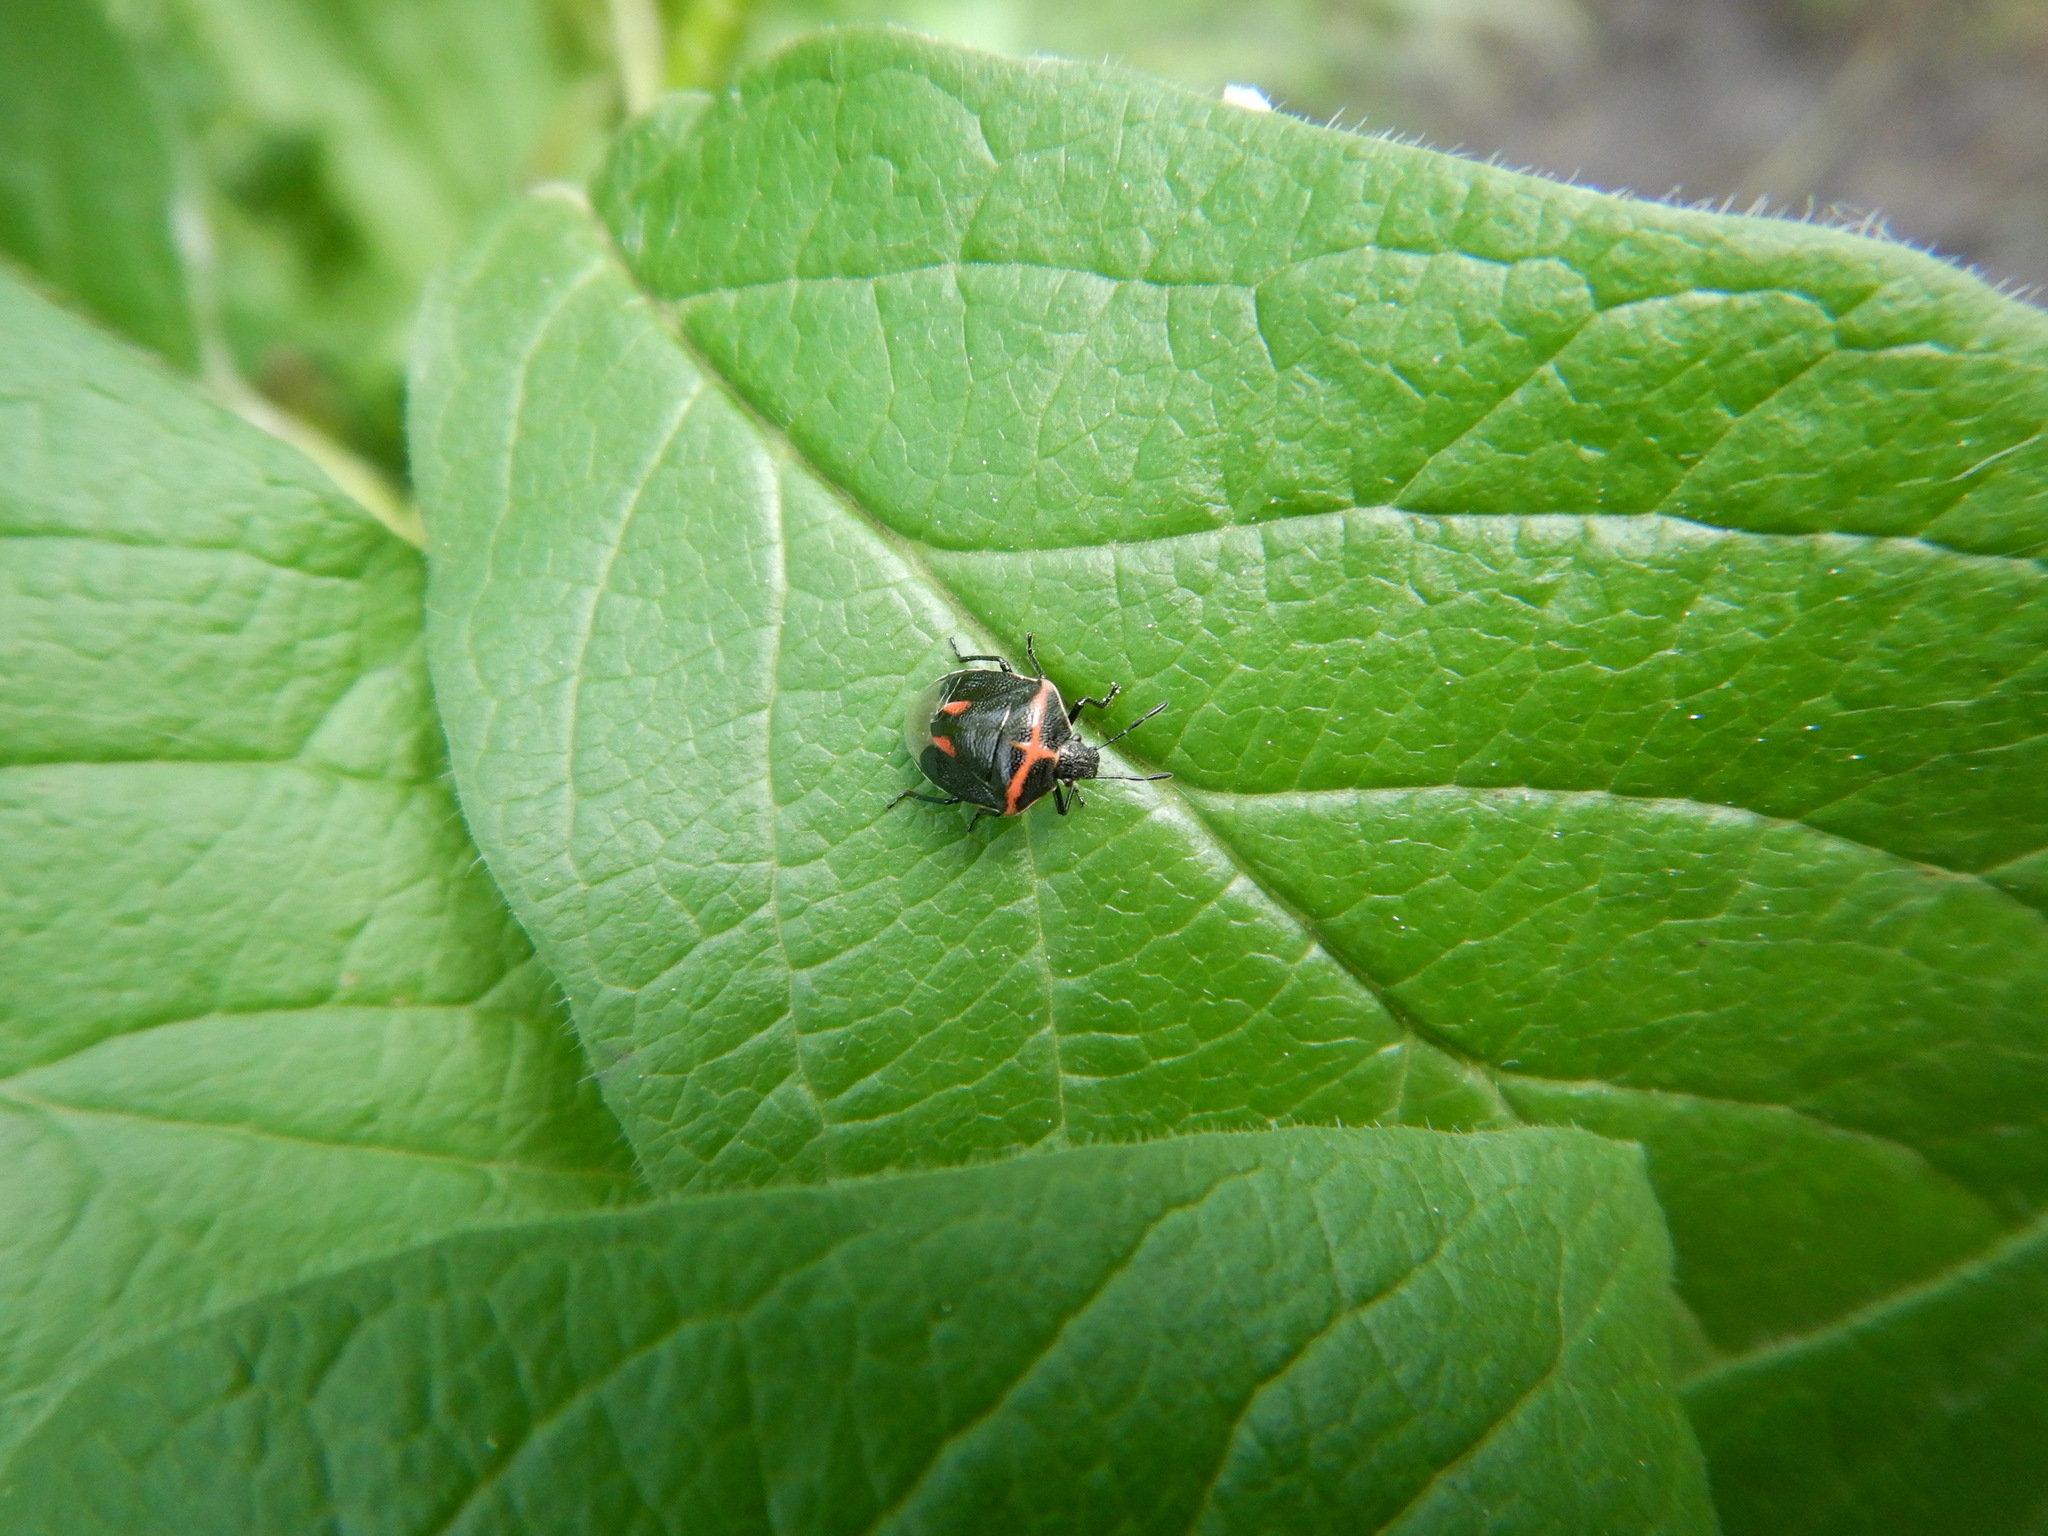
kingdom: Animalia
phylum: Arthropoda
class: Insecta
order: Hemiptera
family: Pentatomidae
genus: Cosmopepla
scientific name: Cosmopepla lintneriana
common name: Twice-stabbed stink bug
